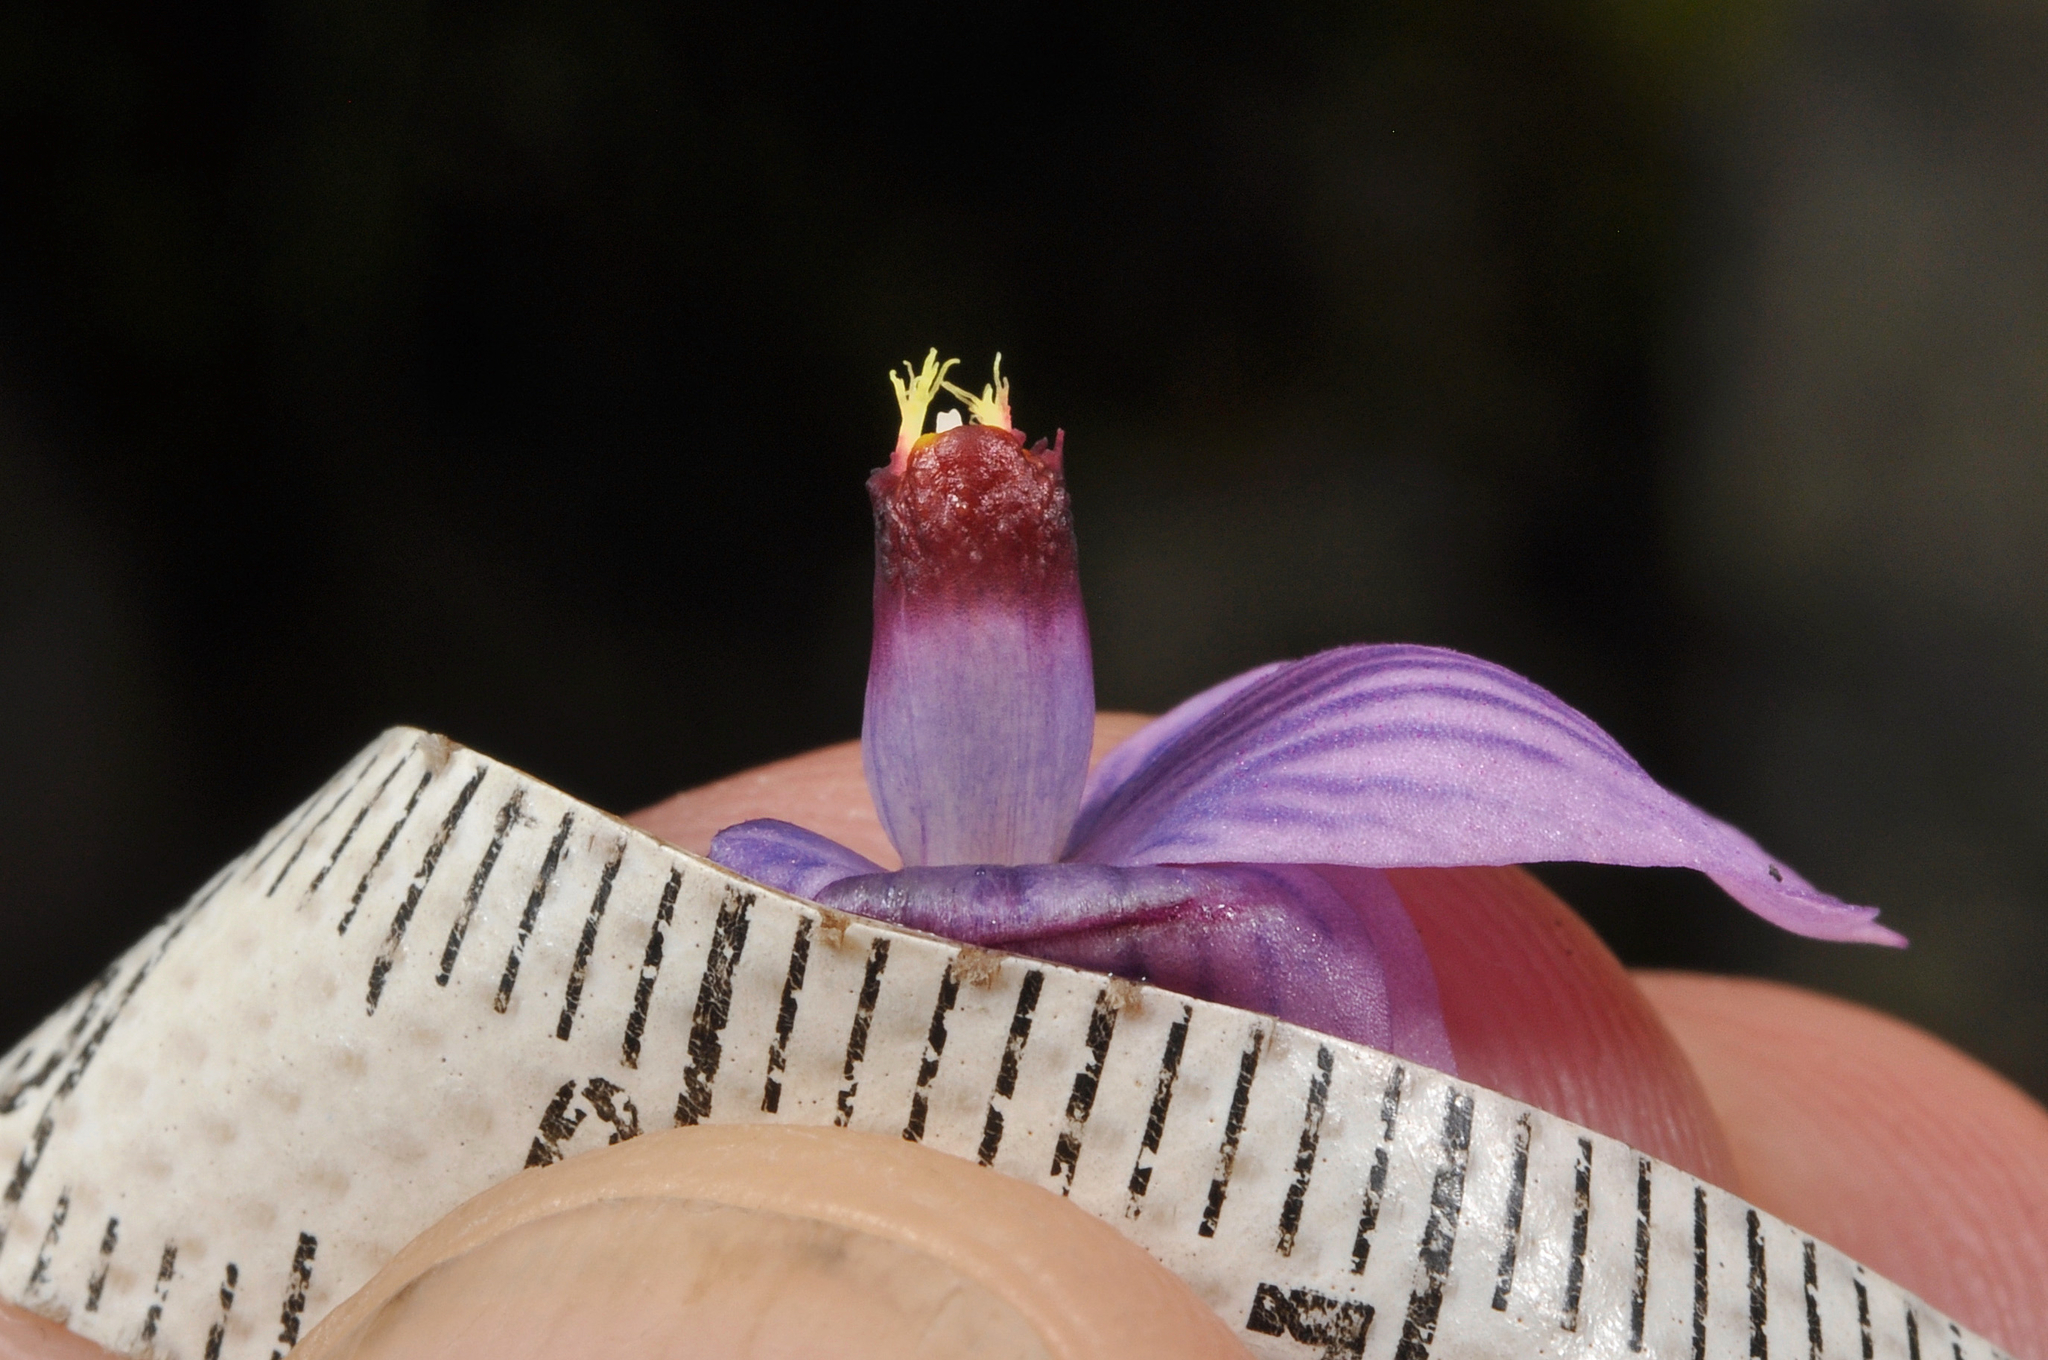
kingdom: Plantae
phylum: Tracheophyta
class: Liliopsida
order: Asparagales
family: Orchidaceae
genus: Thelymitra
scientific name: Thelymitra pulchella
